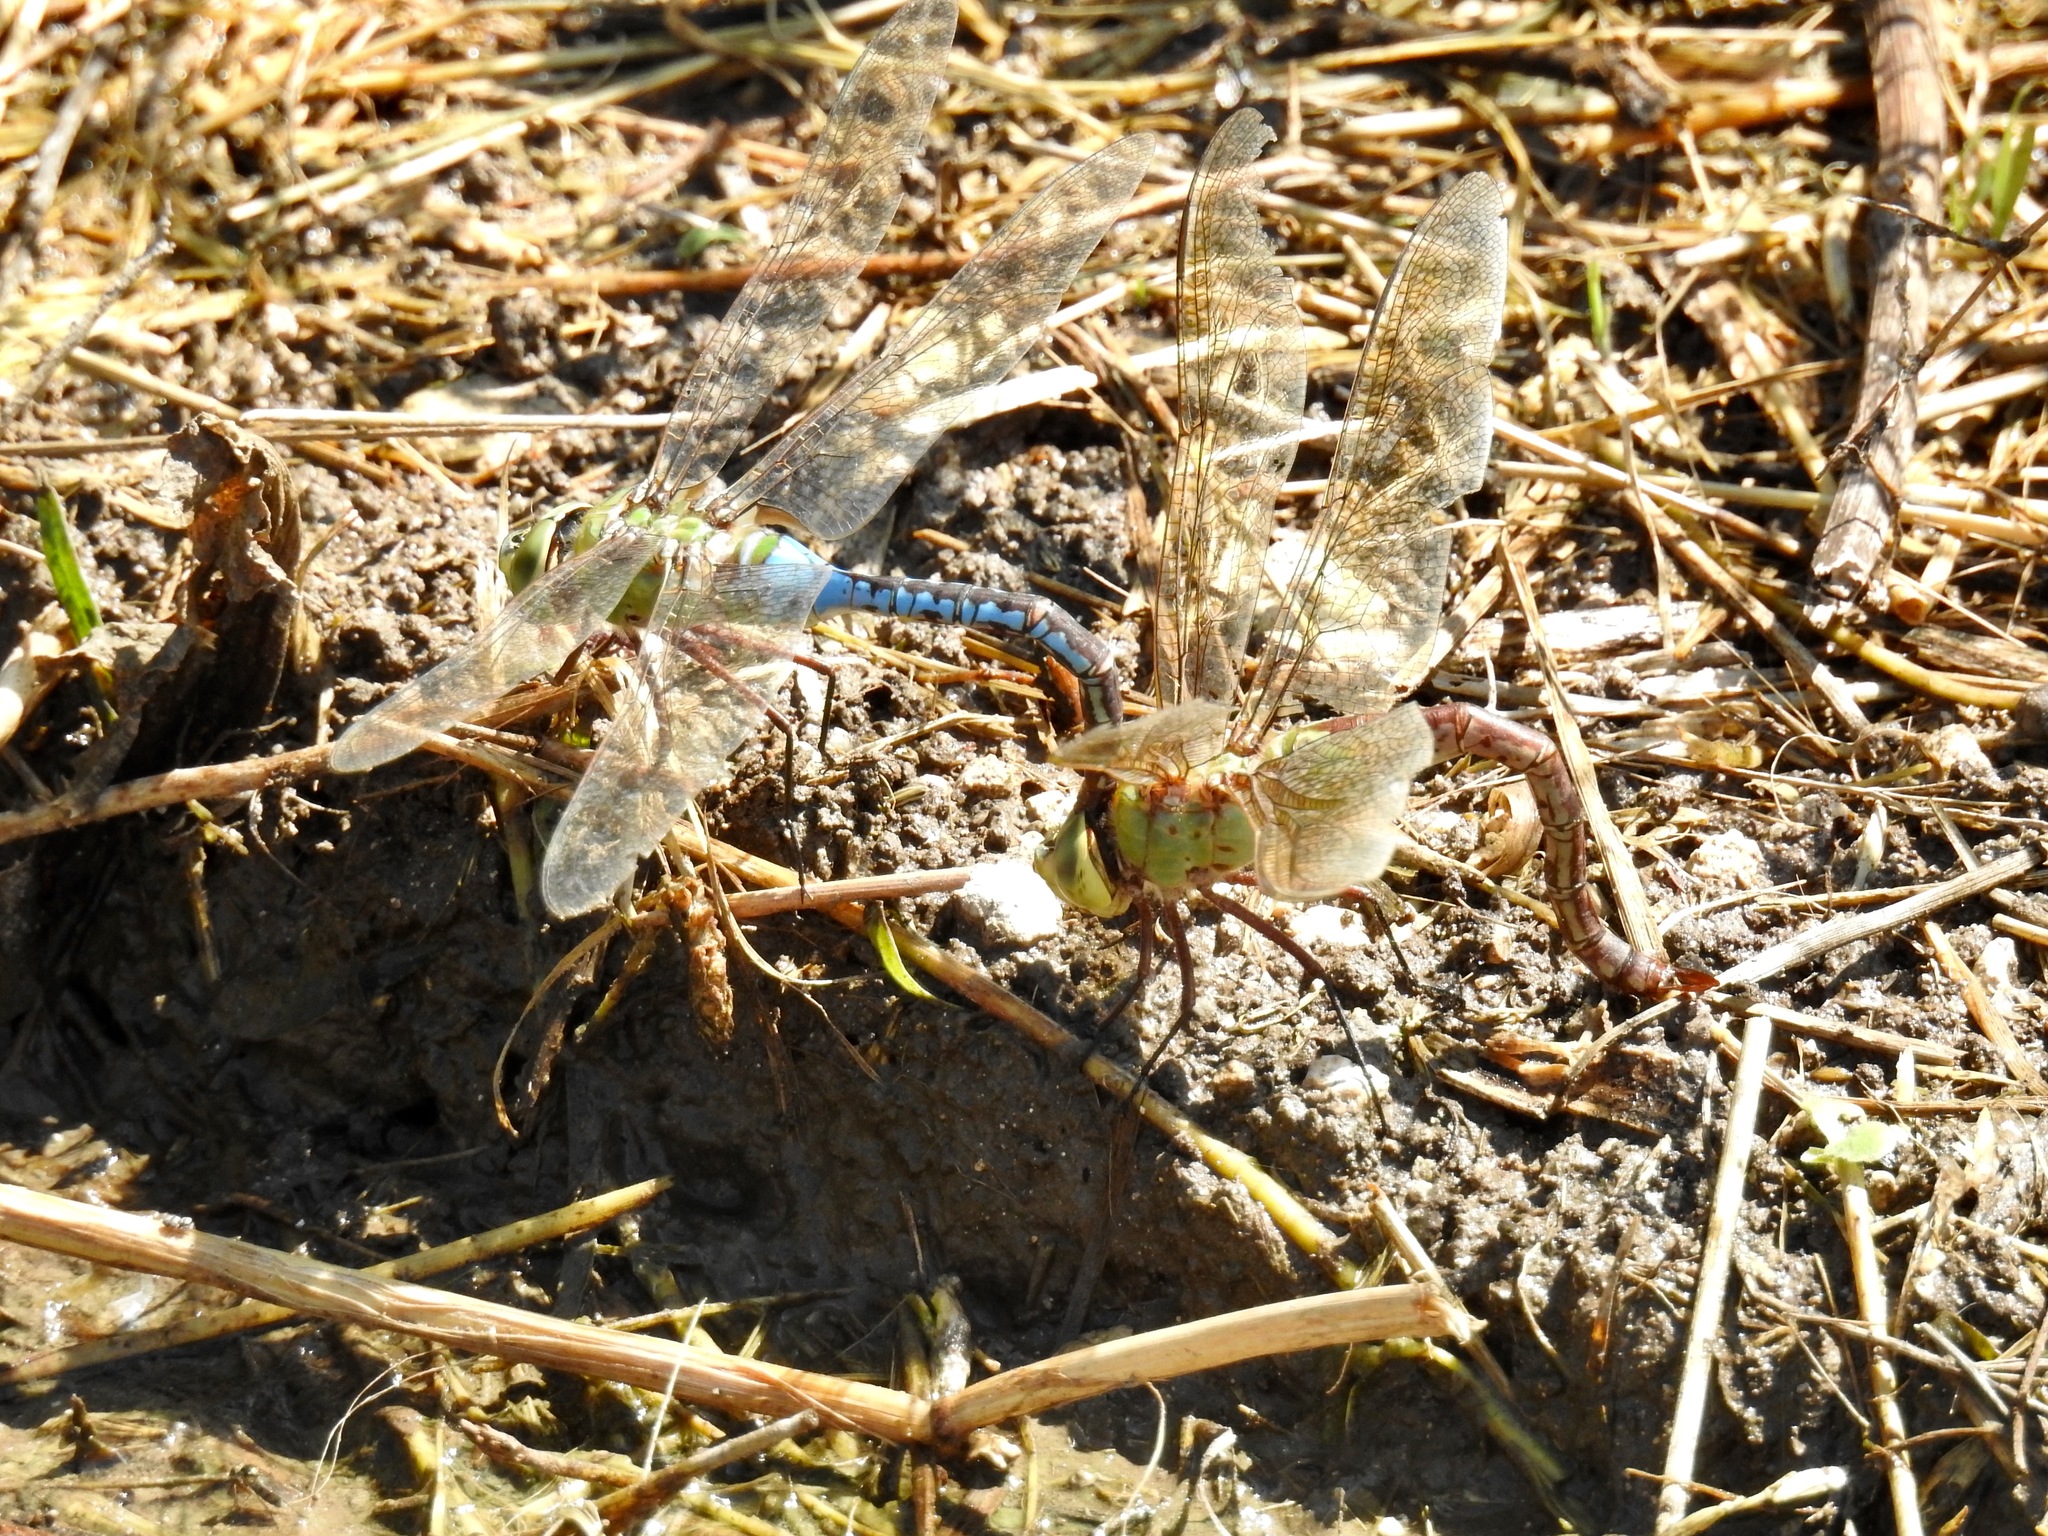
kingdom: Animalia
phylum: Arthropoda
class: Insecta
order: Odonata
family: Aeshnidae
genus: Anax
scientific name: Anax junius
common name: Common green darner
